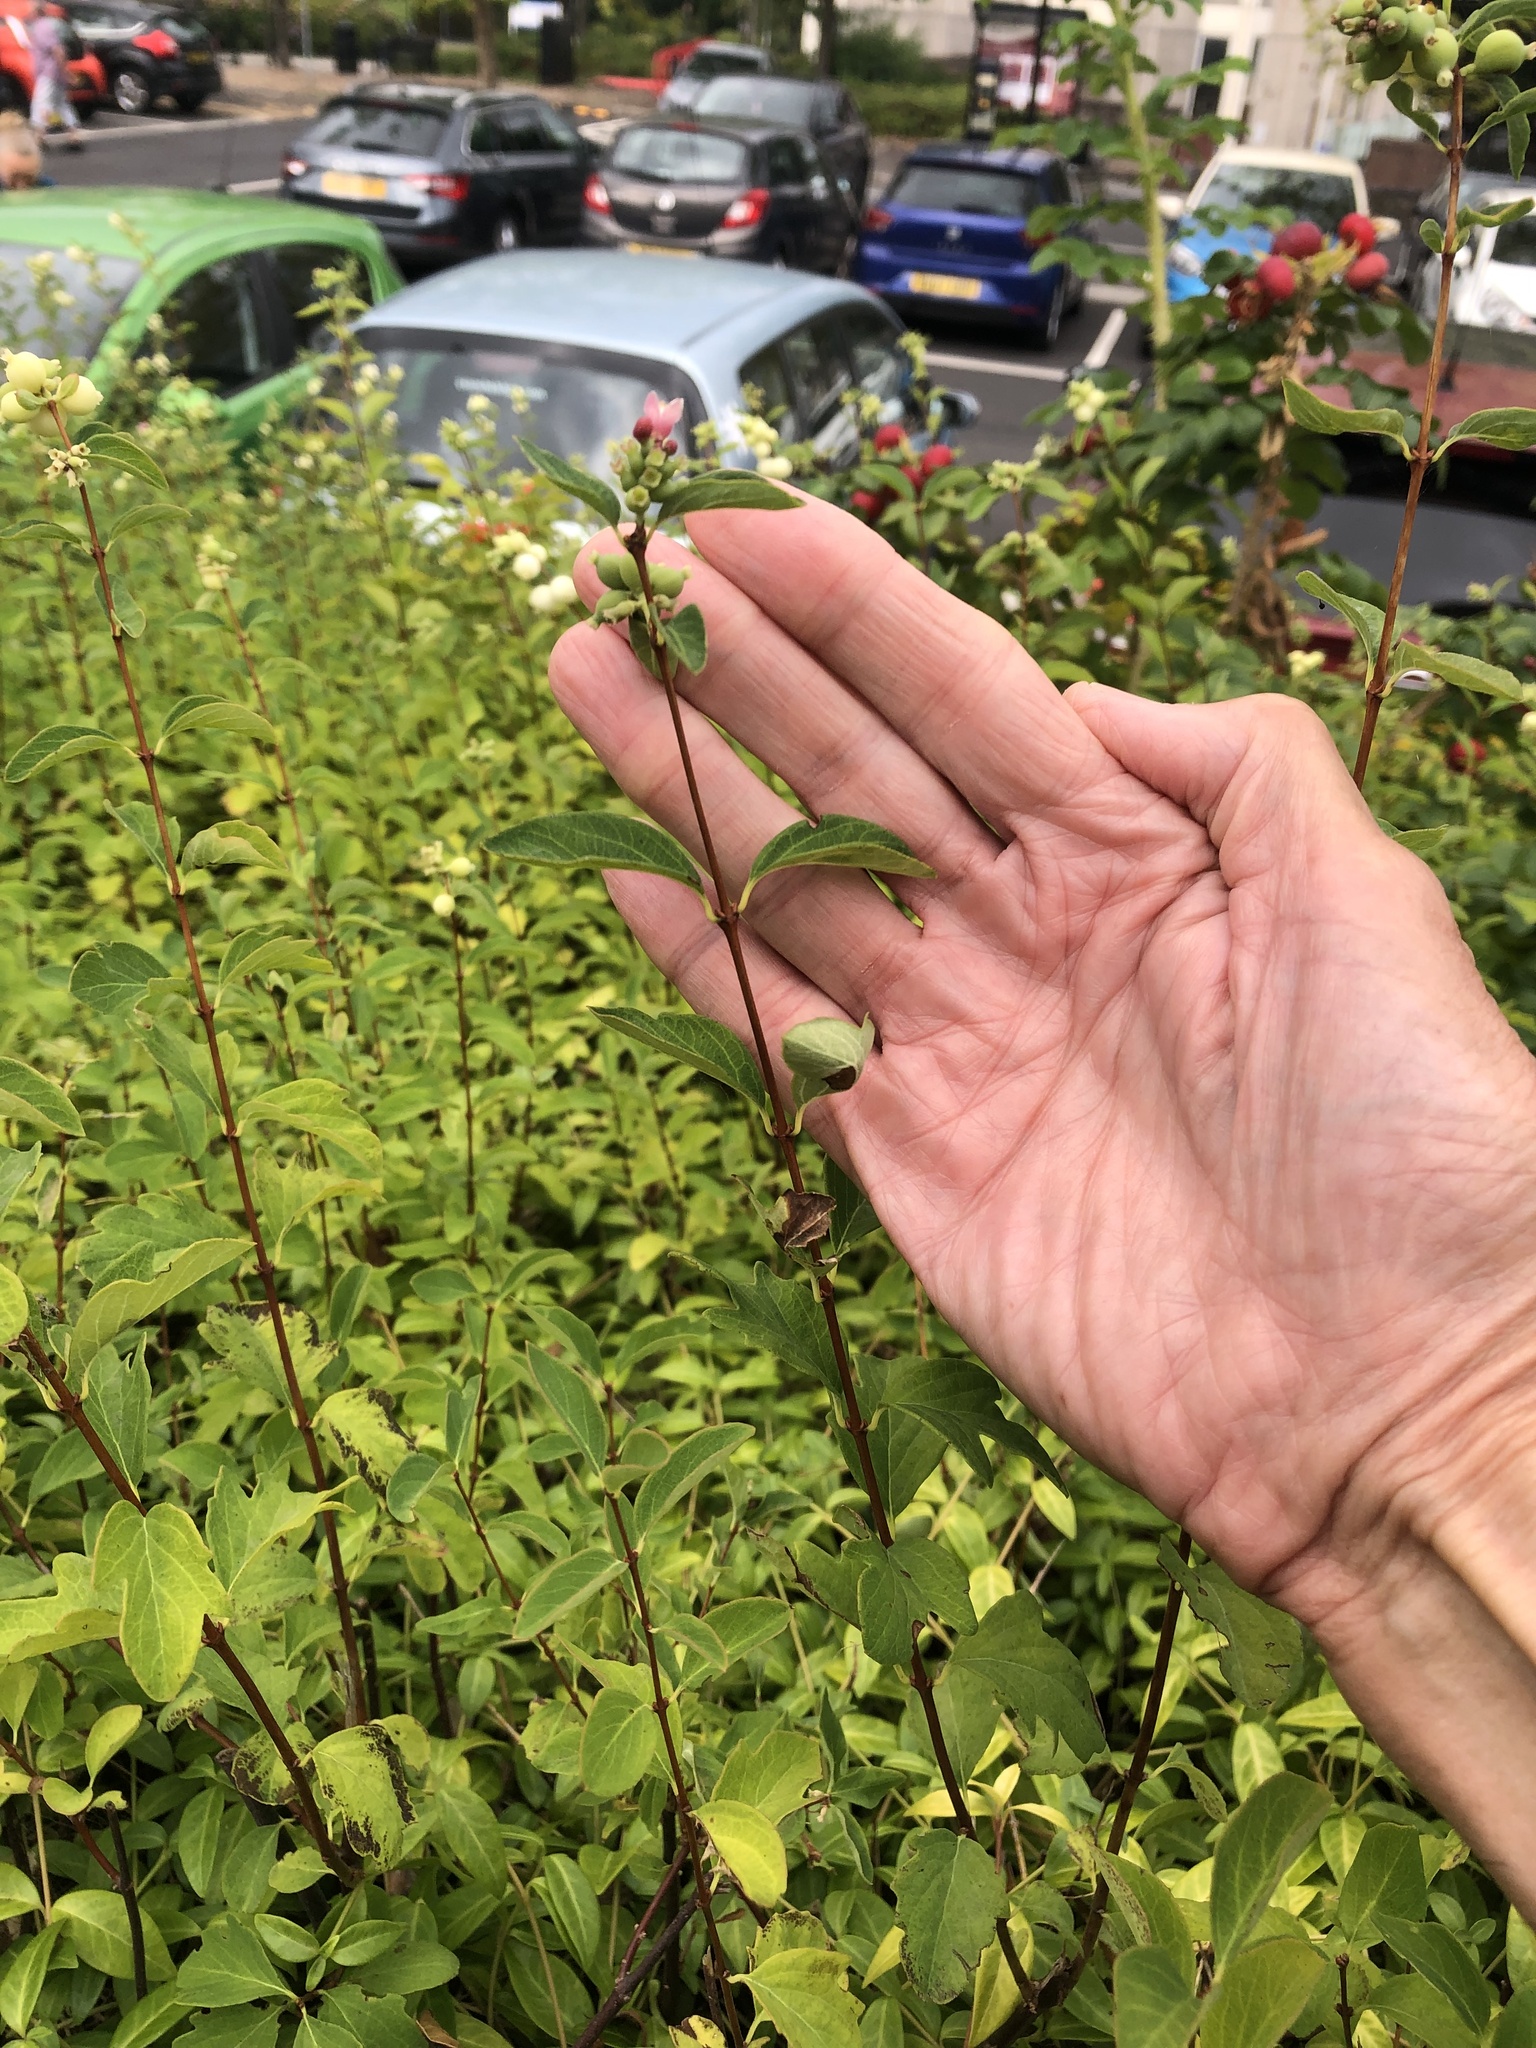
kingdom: Plantae
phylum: Tracheophyta
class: Magnoliopsida
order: Dipsacales
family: Caprifoliaceae
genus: Symphoricarpos
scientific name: Symphoricarpos albus
